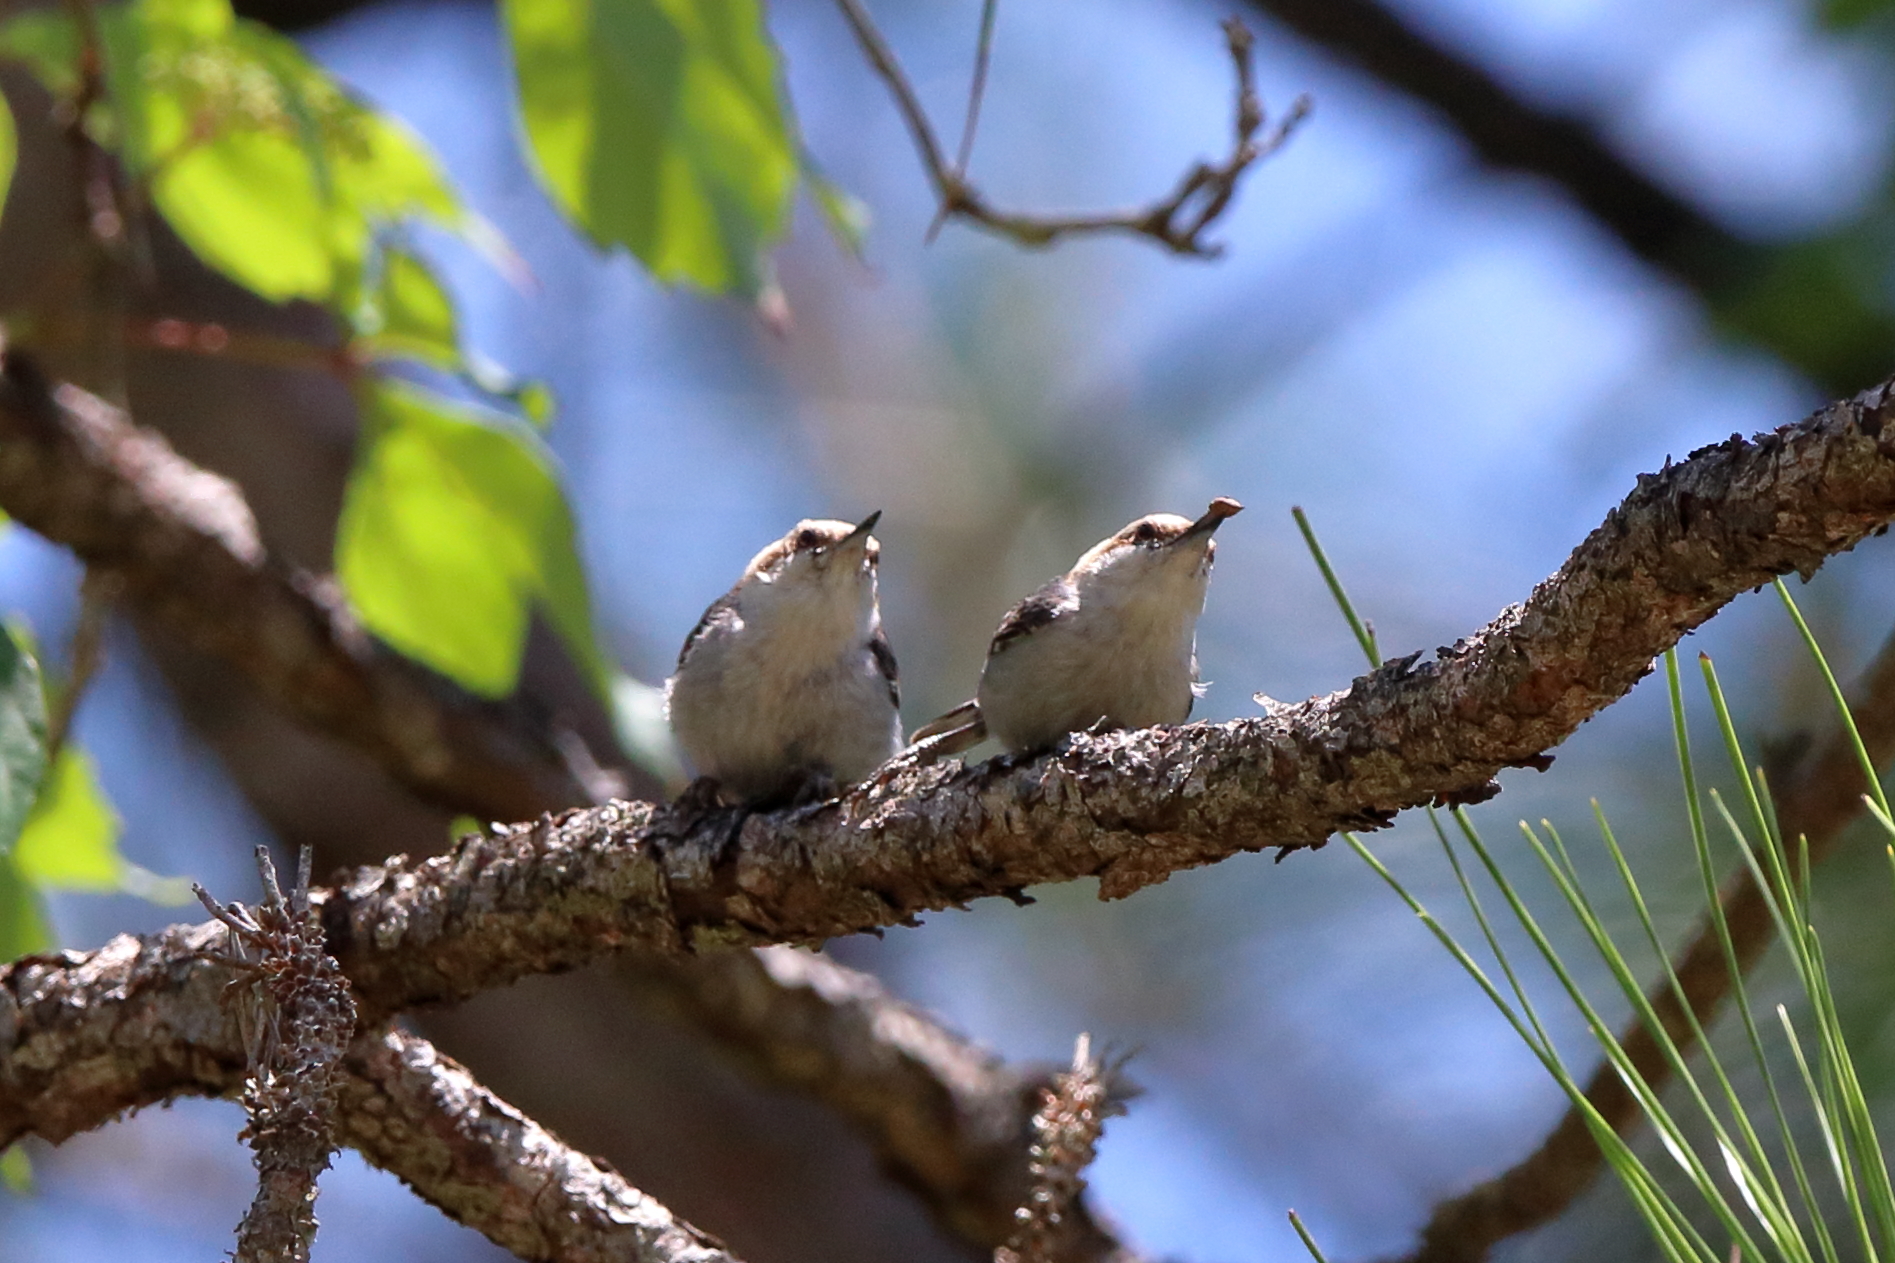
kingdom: Animalia
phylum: Chordata
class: Aves
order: Passeriformes
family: Sittidae
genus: Sitta
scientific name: Sitta pusilla
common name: Brown-headed nuthatch
